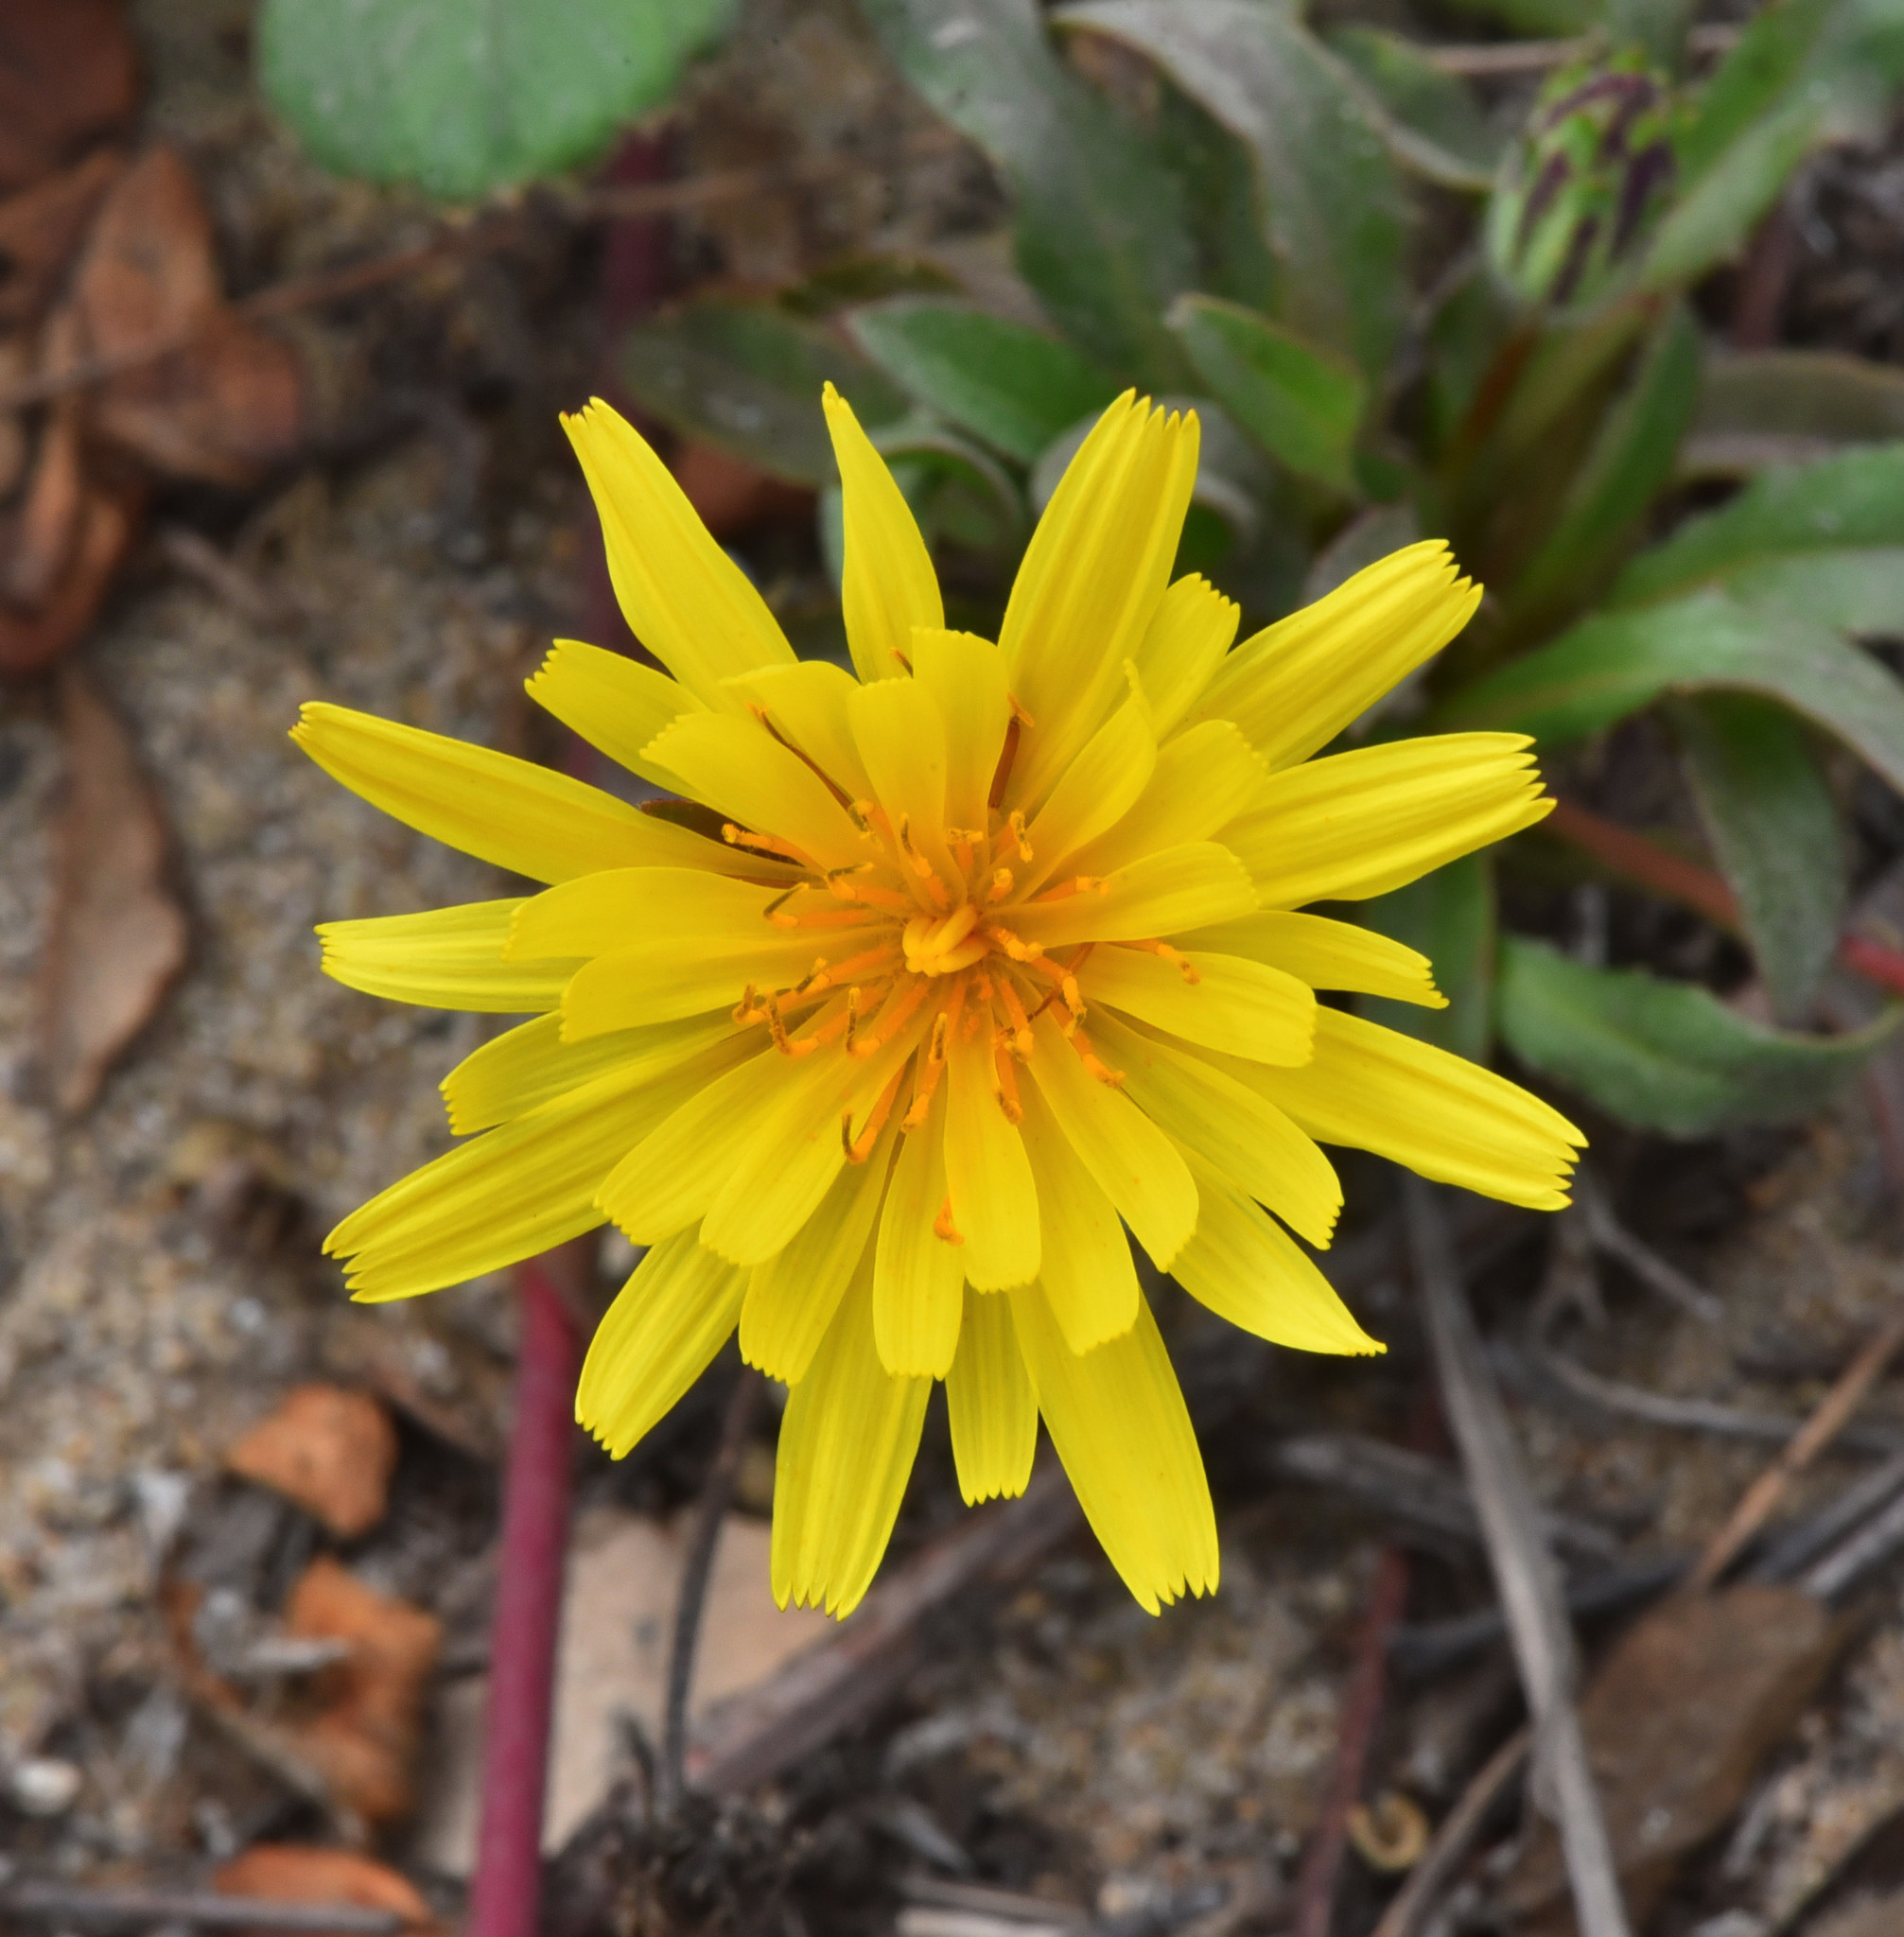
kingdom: Plantae
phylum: Tracheophyta
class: Magnoliopsida
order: Asterales
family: Asteraceae
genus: Agoseris
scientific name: Agoseris apargioides
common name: Point reyes agoseris
